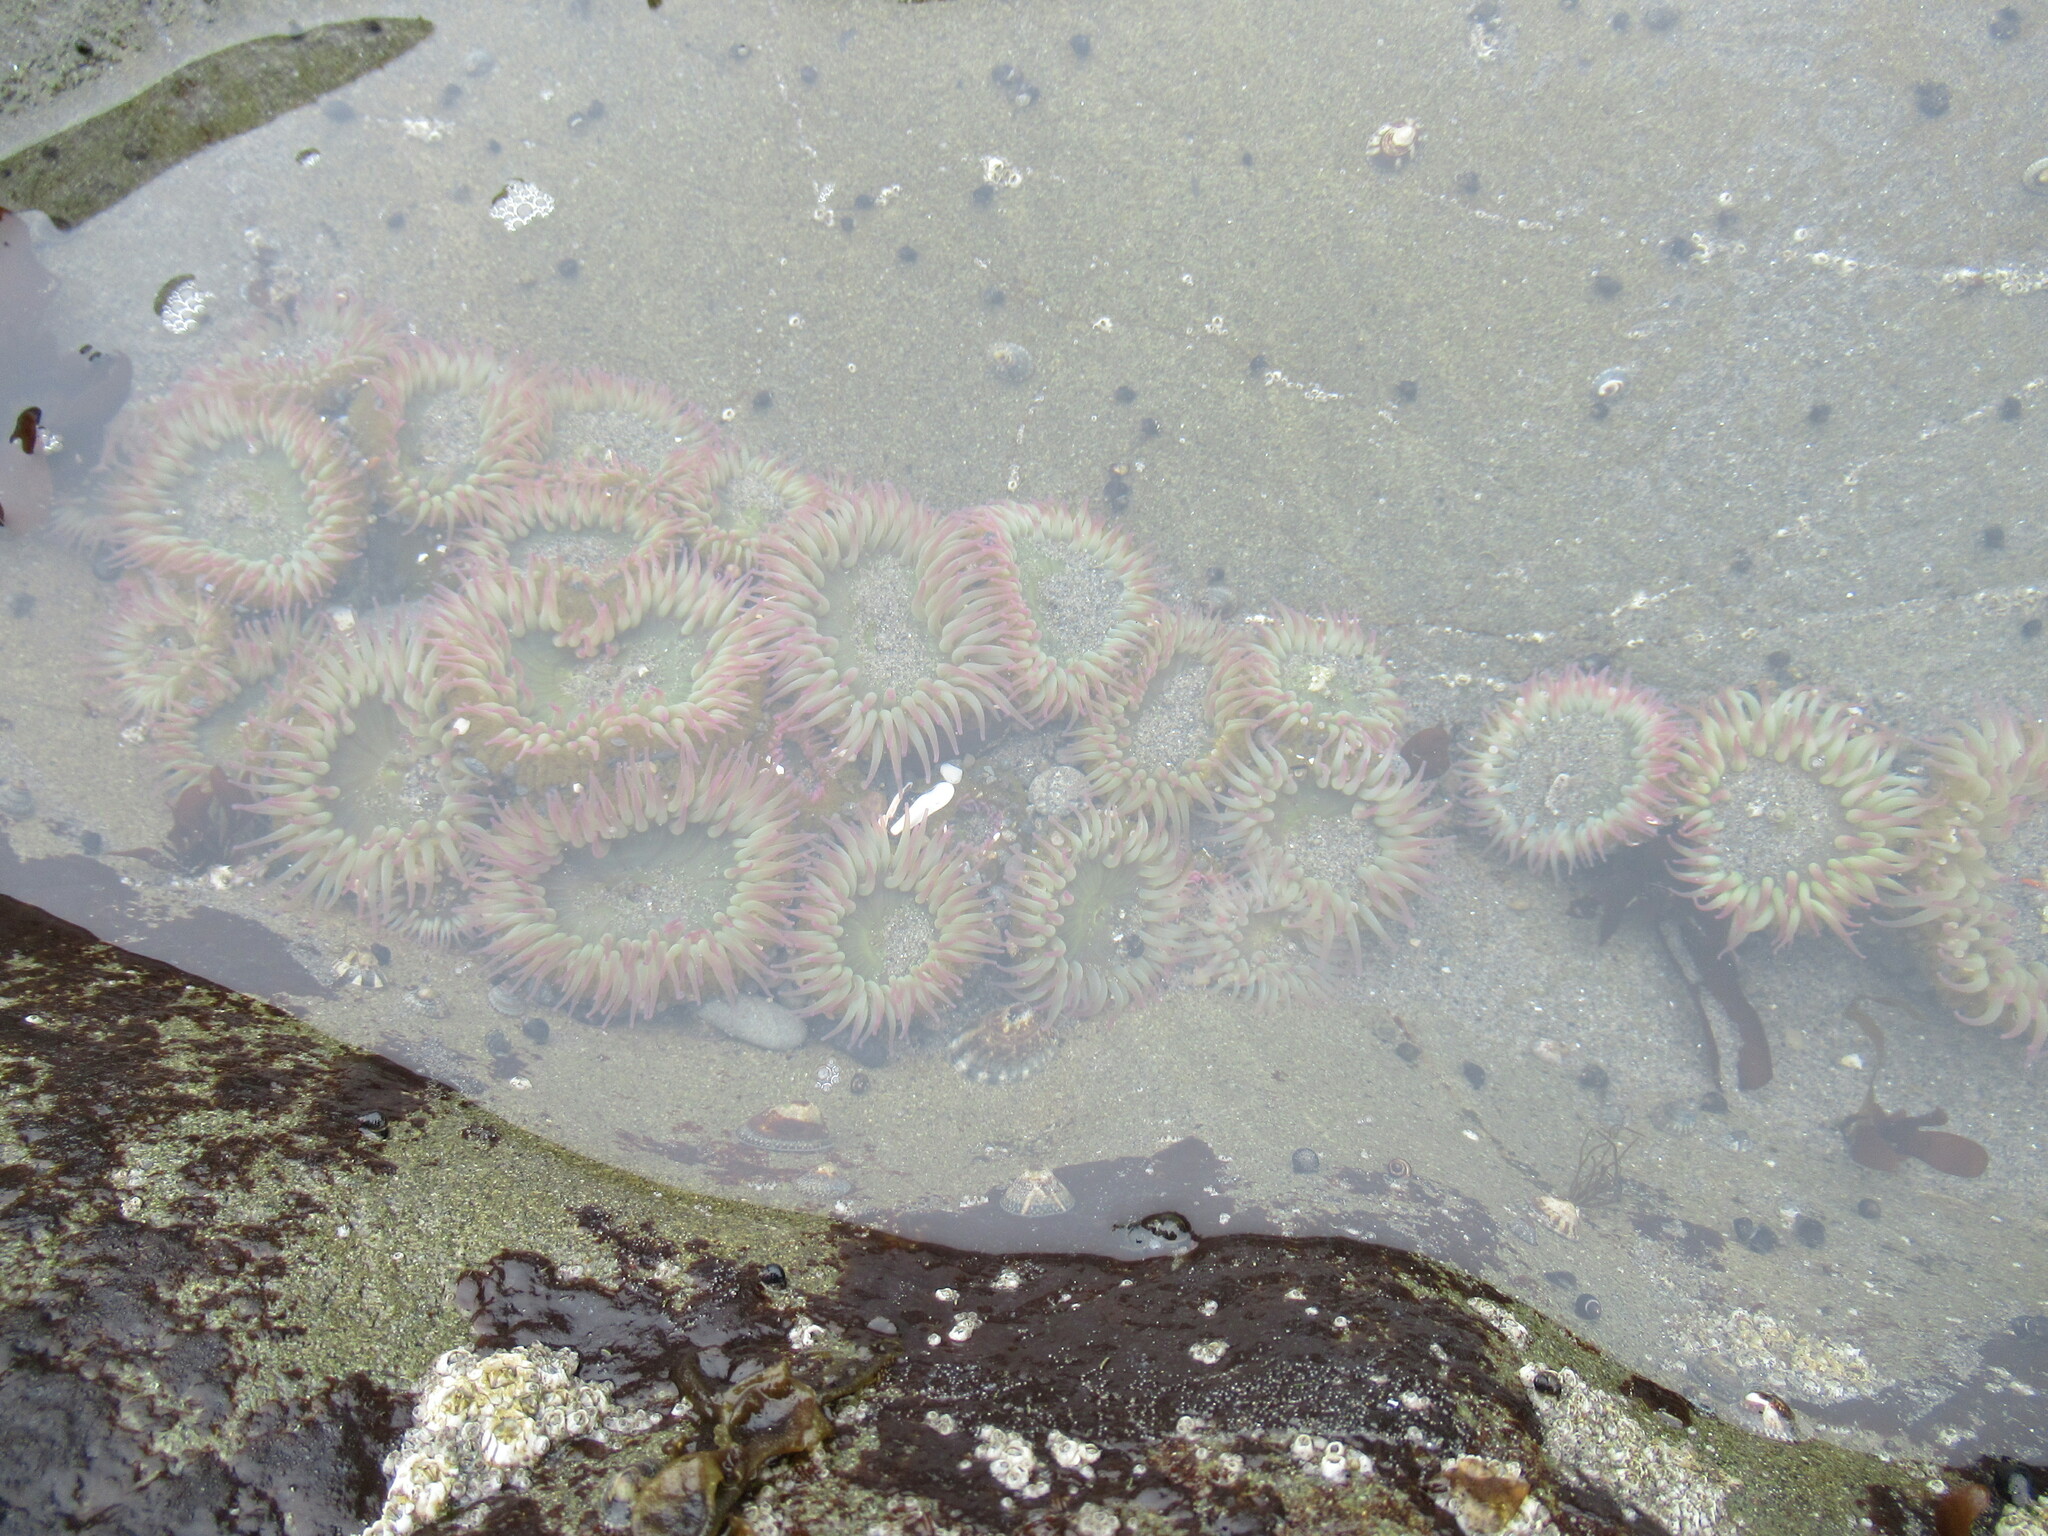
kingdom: Animalia
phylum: Cnidaria
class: Anthozoa
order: Actiniaria
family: Actiniidae
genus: Anthopleura
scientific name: Anthopleura elegantissima
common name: Clonal anemone
